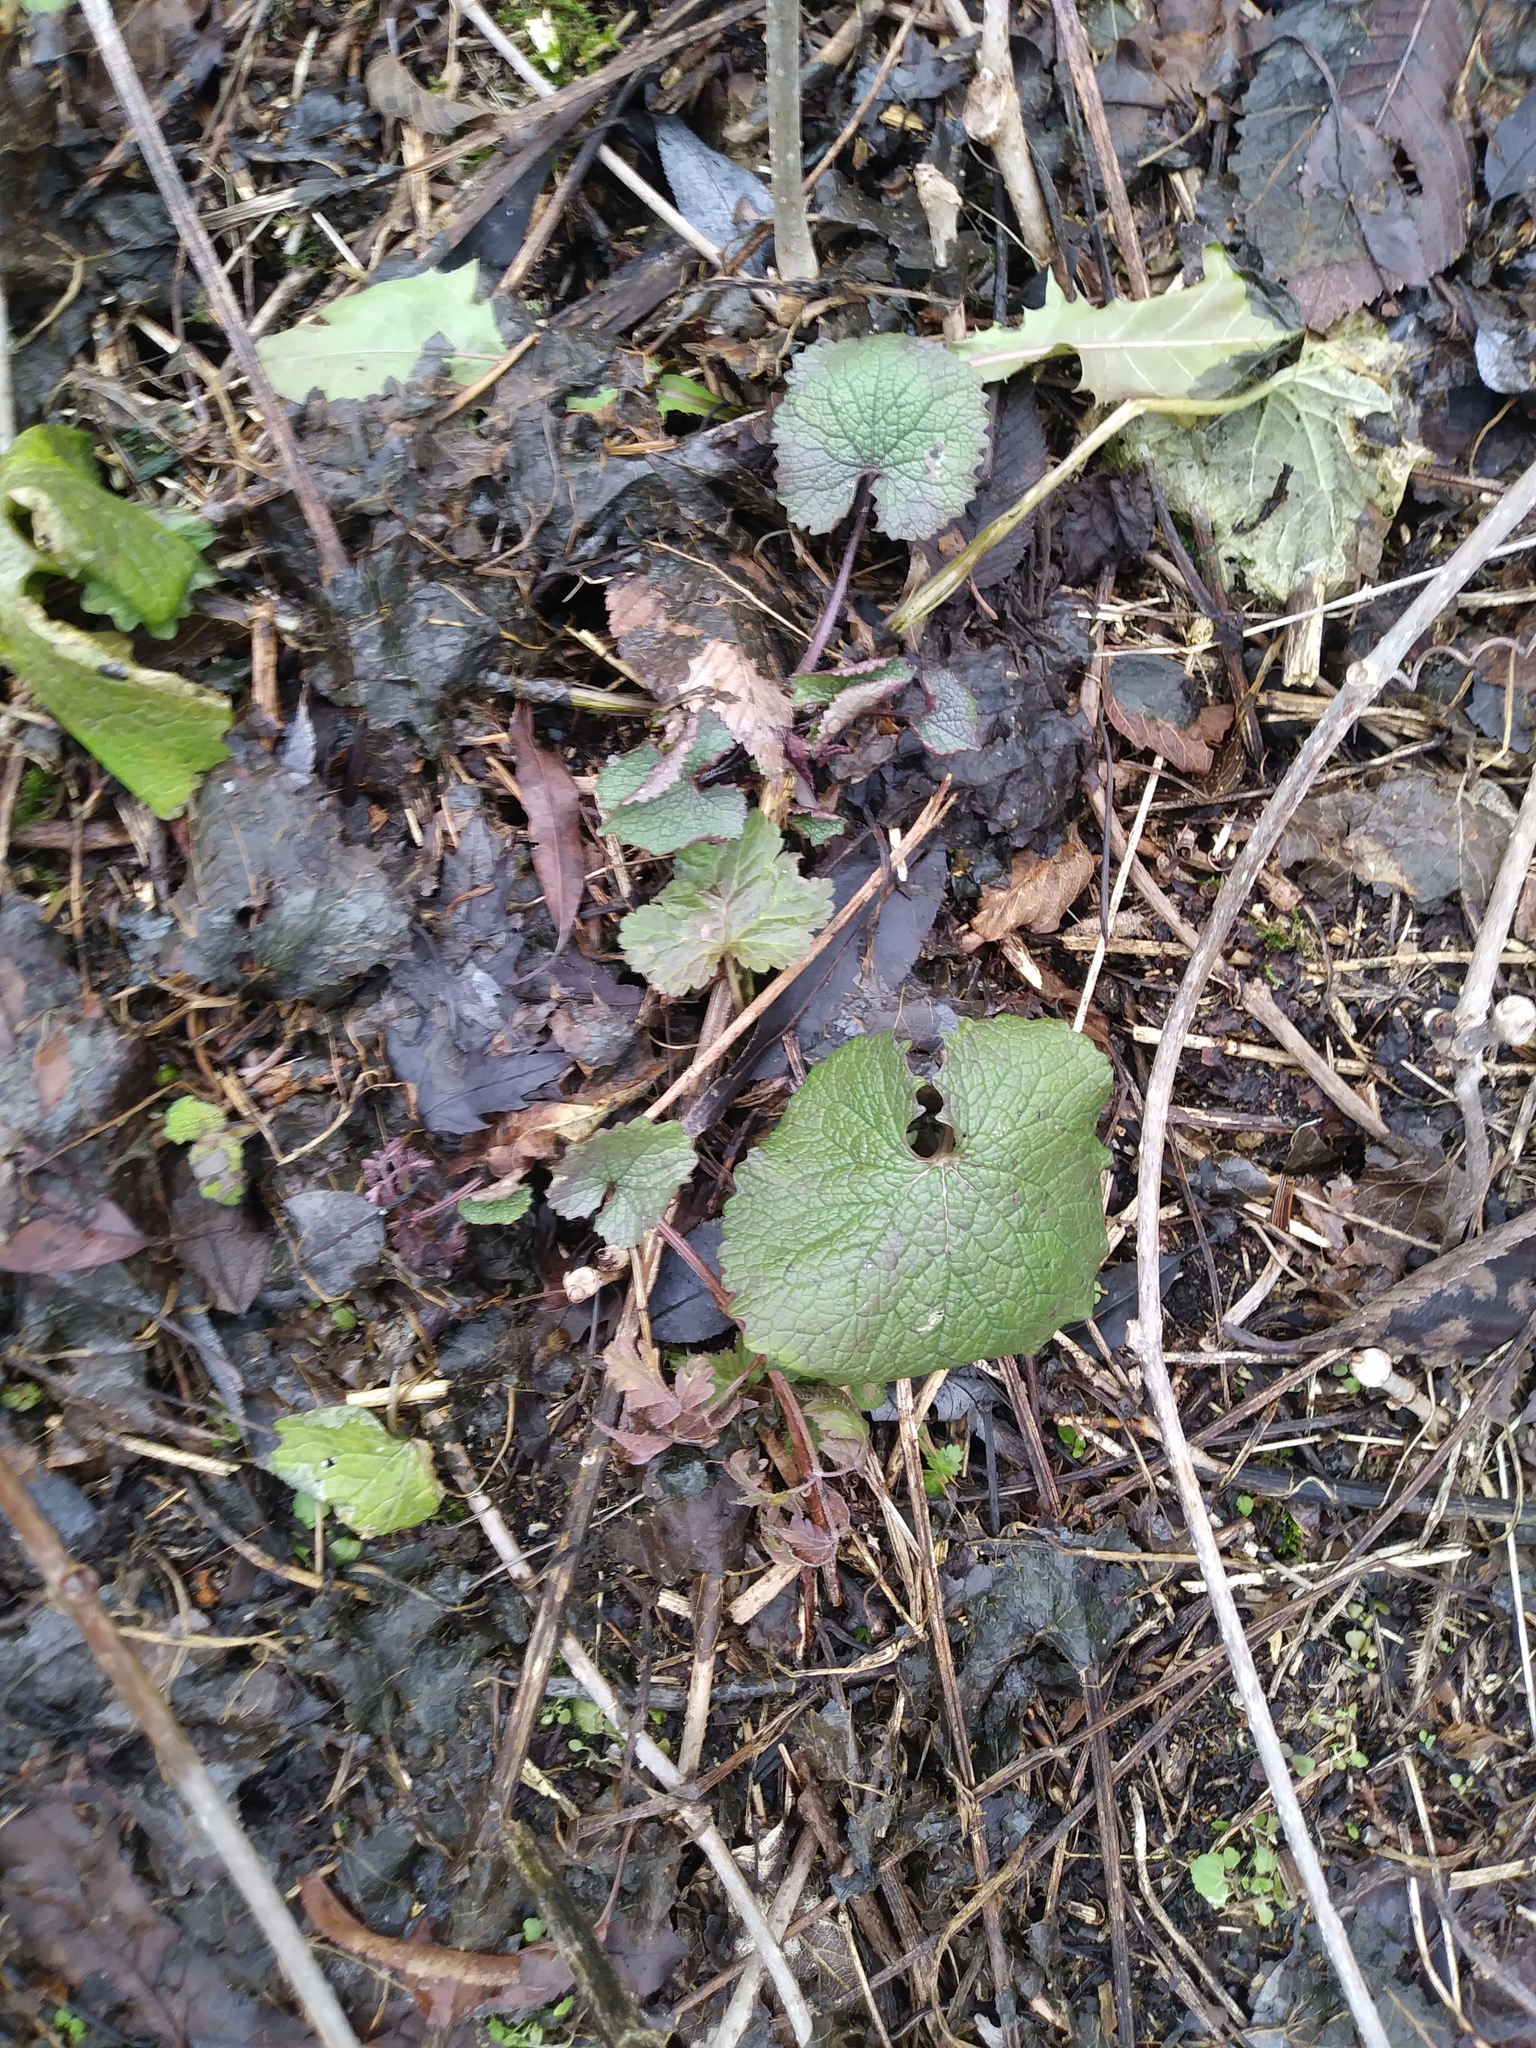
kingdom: Plantae
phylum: Tracheophyta
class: Magnoliopsida
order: Brassicales
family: Brassicaceae
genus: Alliaria
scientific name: Alliaria petiolata
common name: Garlic mustard
